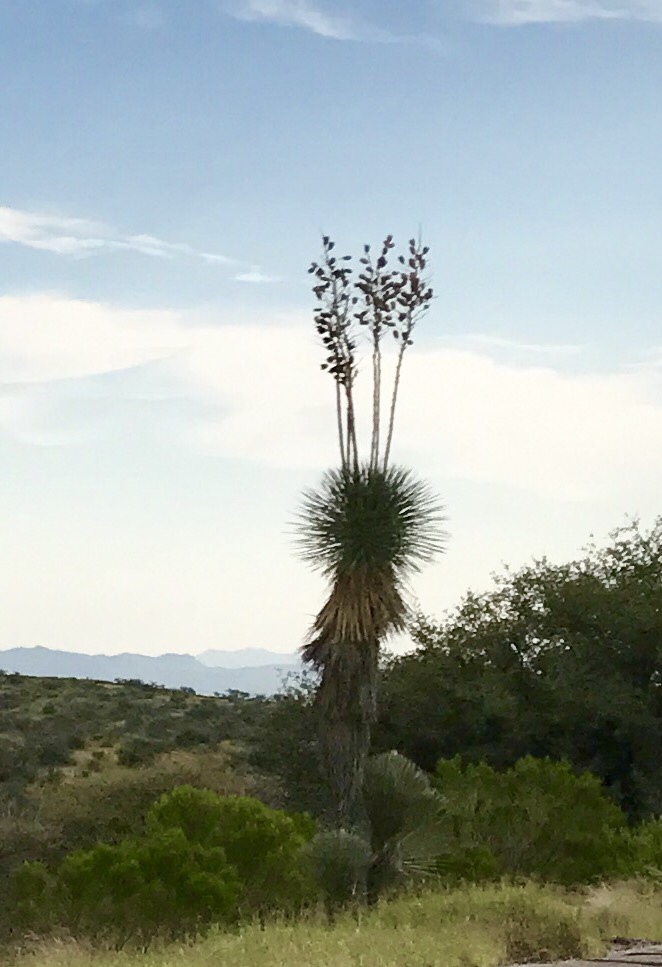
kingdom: Plantae
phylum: Tracheophyta
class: Liliopsida
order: Asparagales
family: Asparagaceae
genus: Yucca
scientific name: Yucca elata
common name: Palmella
